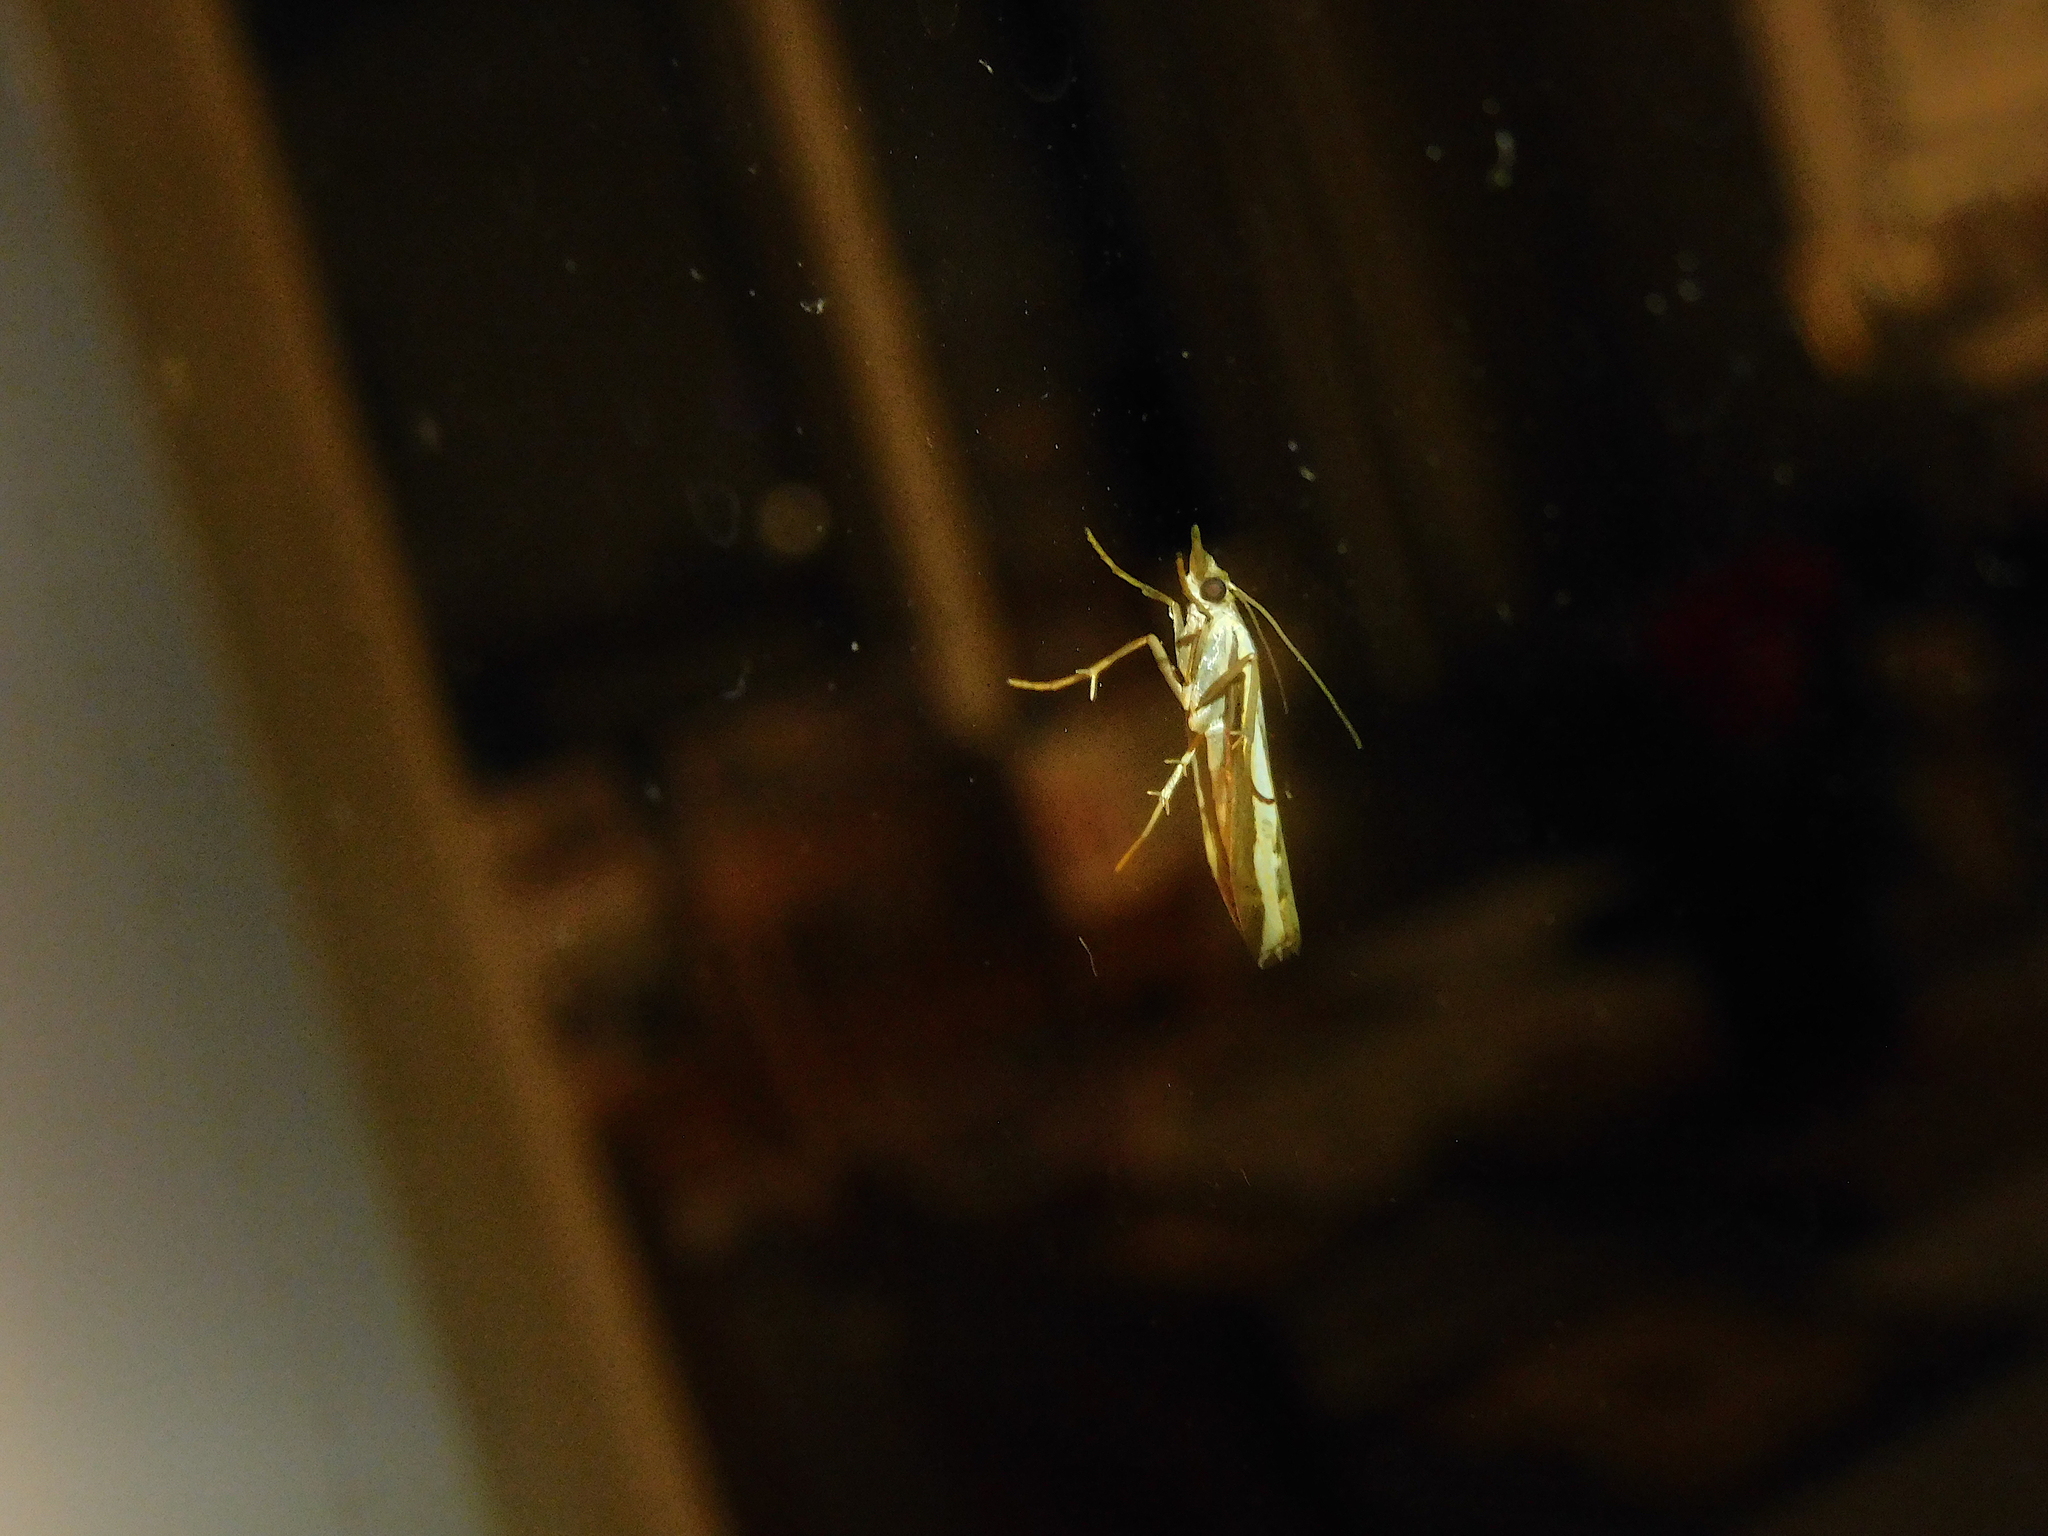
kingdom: Animalia
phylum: Arthropoda
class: Insecta
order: Lepidoptera
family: Crambidae
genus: Orocrambus
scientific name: Orocrambus flexuosellus
